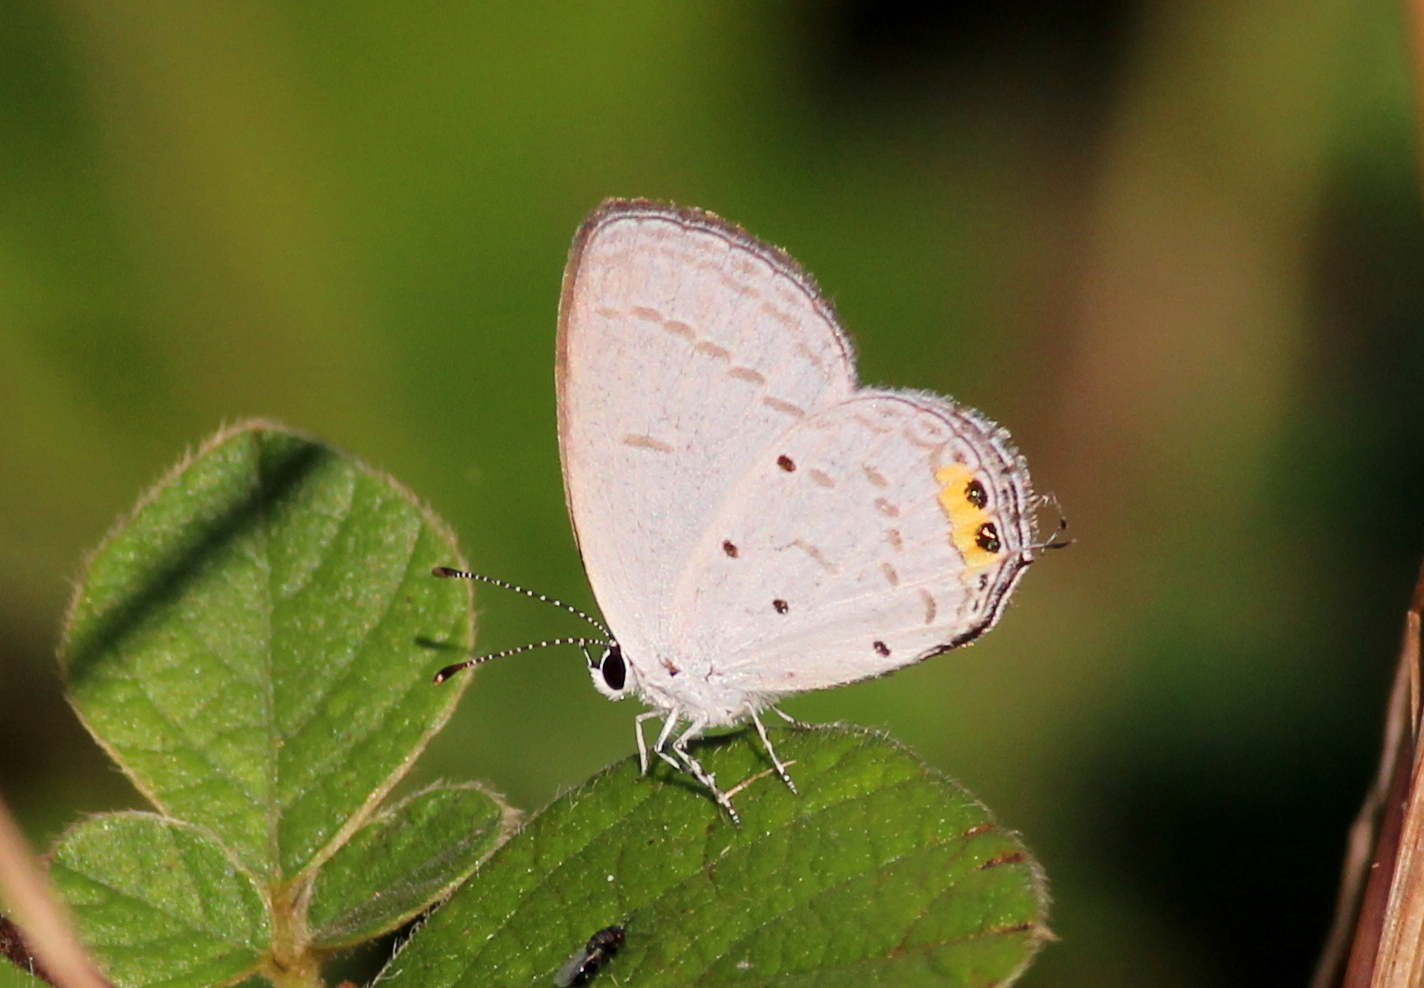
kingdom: Animalia
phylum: Arthropoda
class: Insecta
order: Lepidoptera
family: Lycaenidae
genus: Everes
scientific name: Everes lacturnus
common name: Orange-tipped pea-blue
